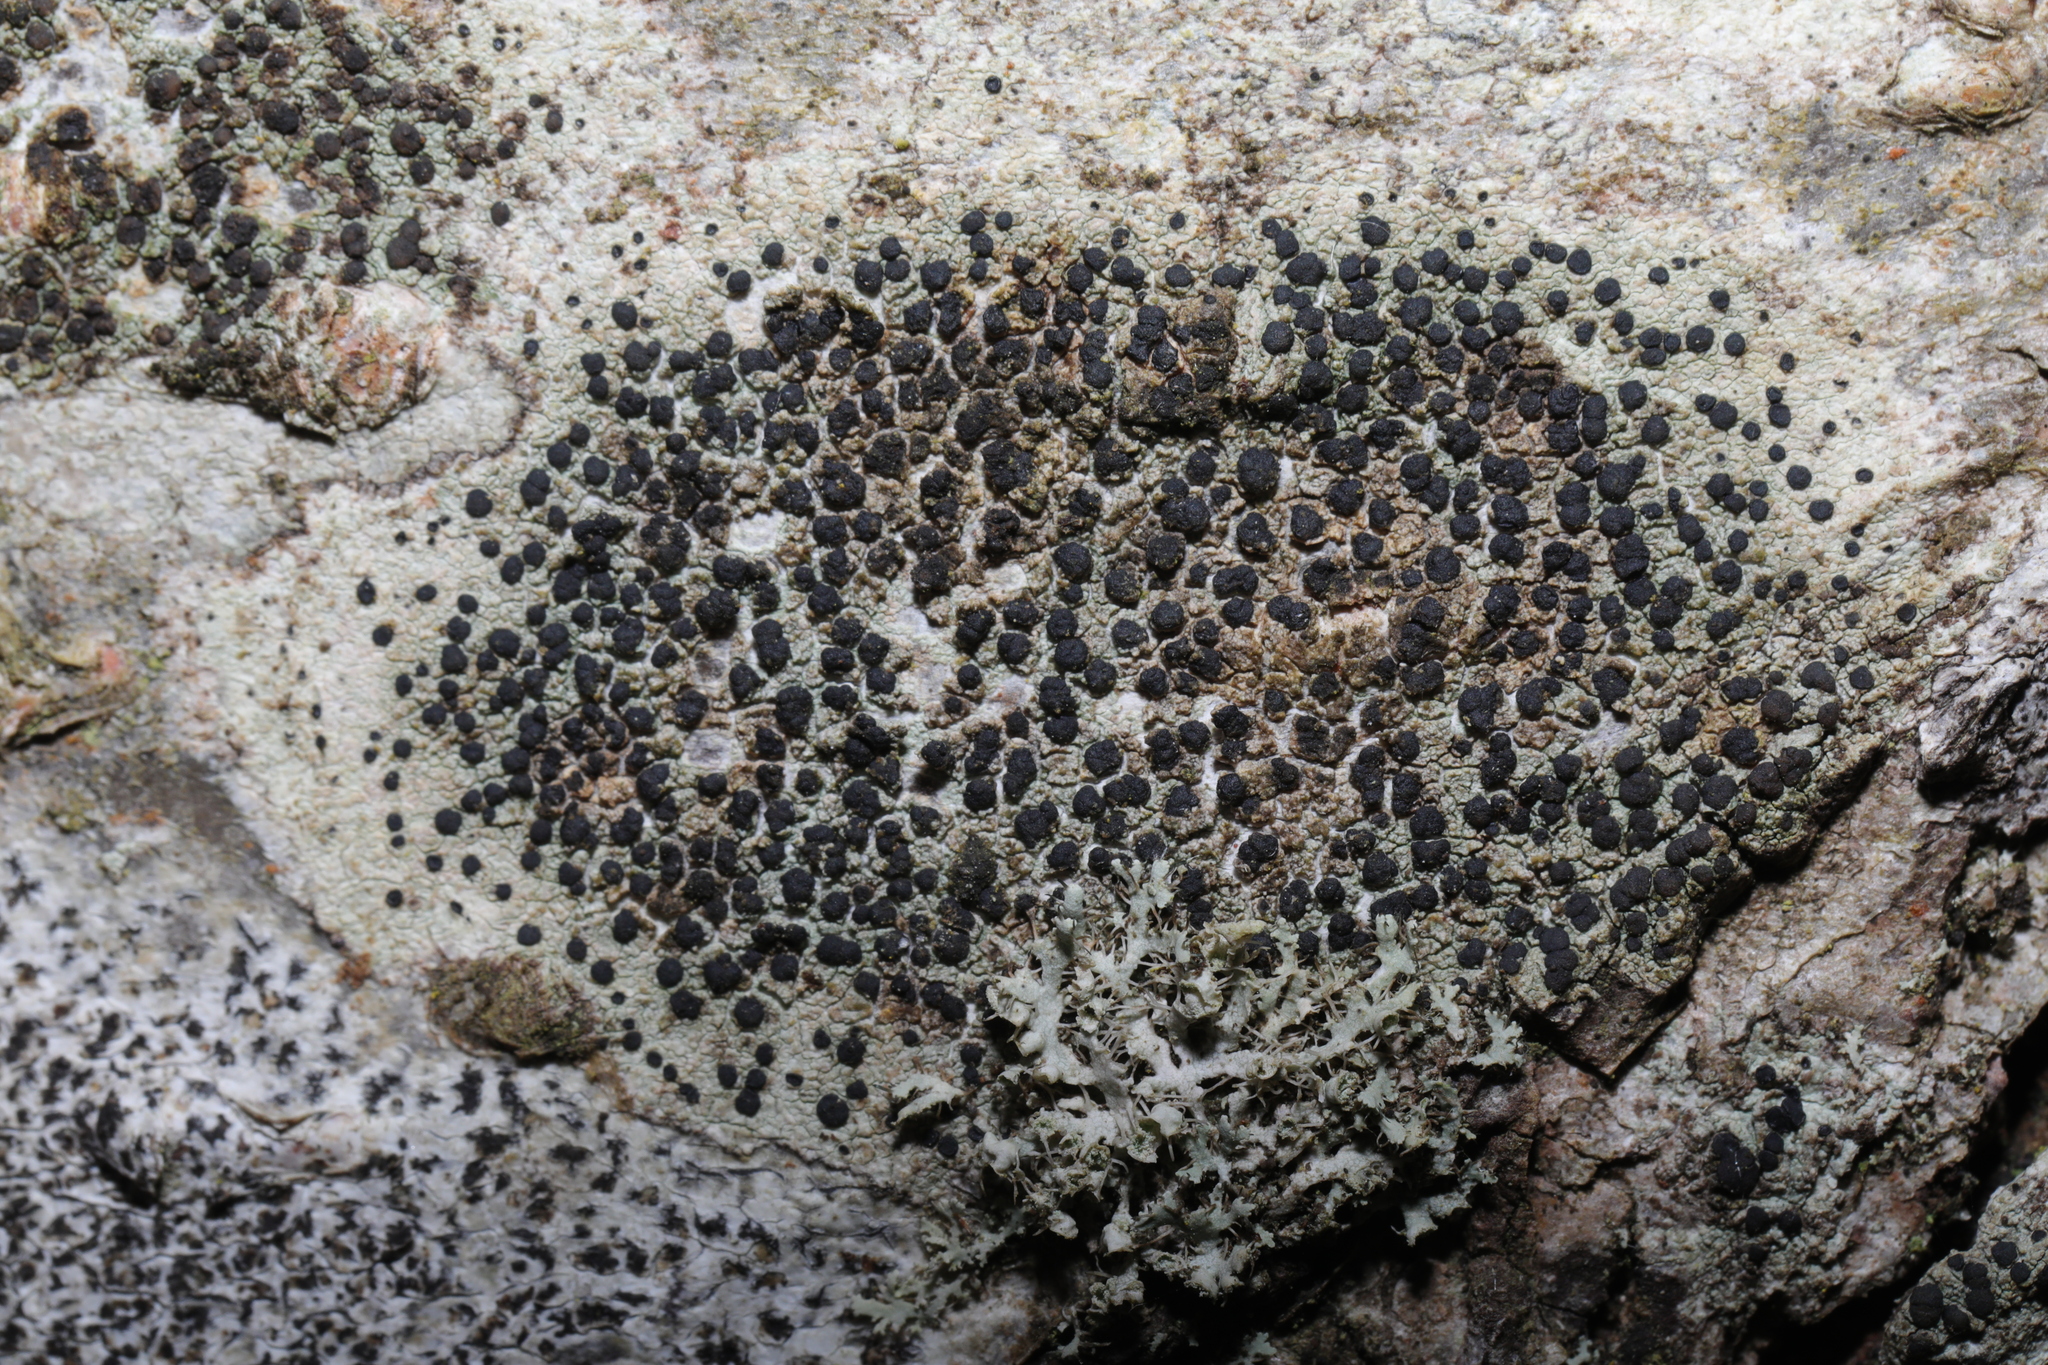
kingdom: Fungi
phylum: Ascomycota
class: Lecanoromycetes
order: Lecanorales
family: Lecanoraceae
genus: Lecidella
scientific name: Lecidella elaeochroma
